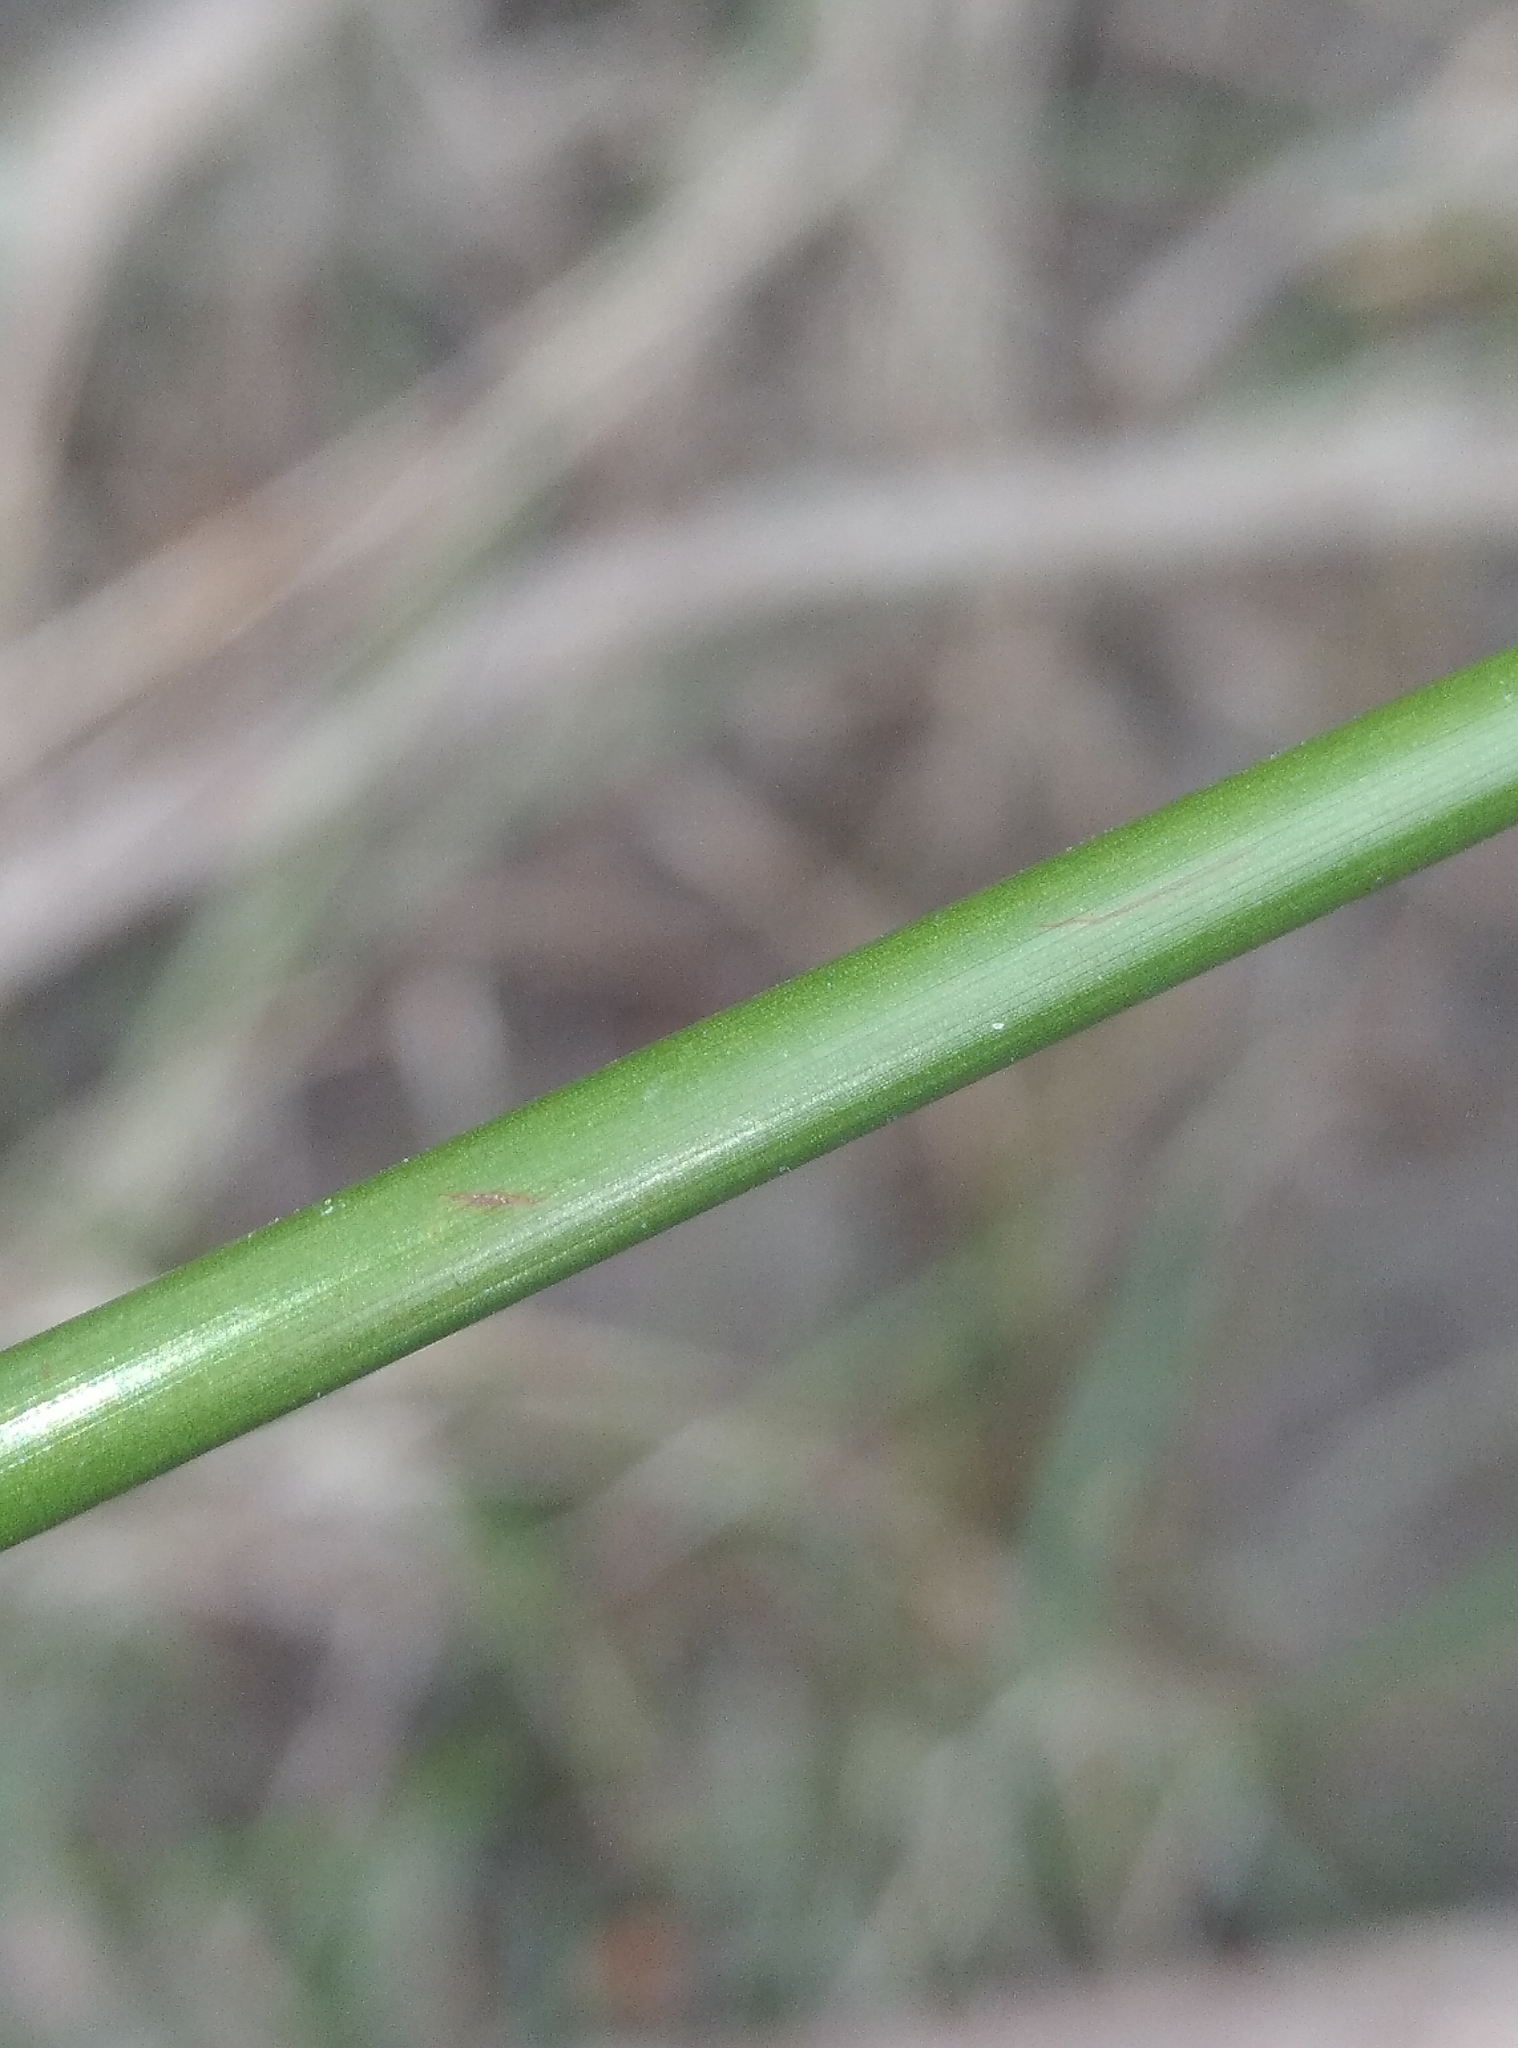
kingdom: Plantae
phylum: Tracheophyta
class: Liliopsida
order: Poales
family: Juncaceae
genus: Juncus
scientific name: Juncus edgariae
